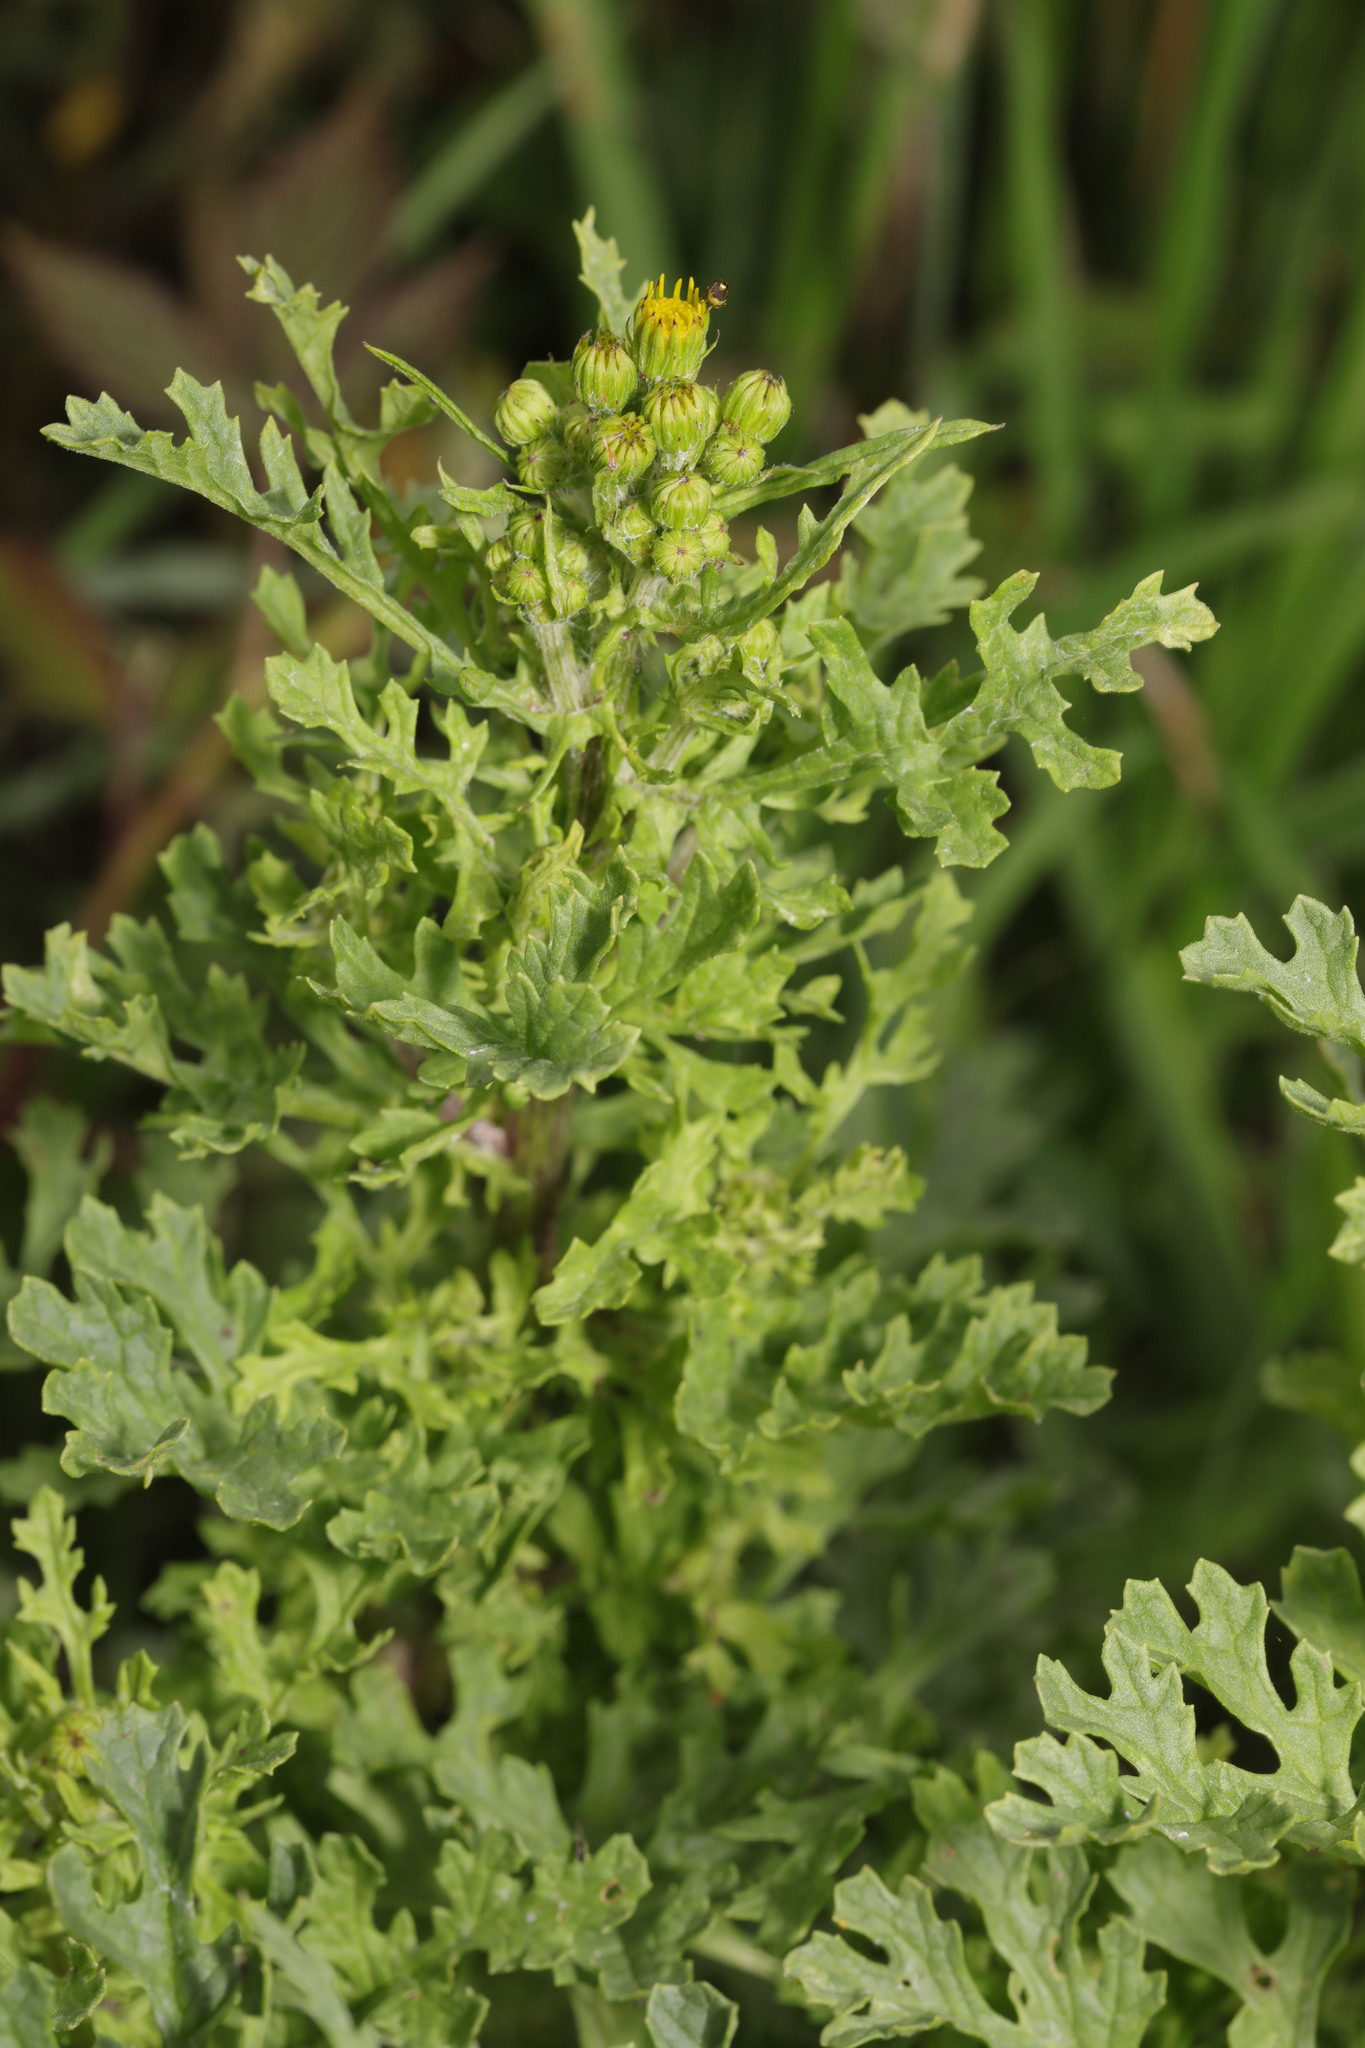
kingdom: Plantae
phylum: Tracheophyta
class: Magnoliopsida
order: Asterales
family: Asteraceae
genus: Jacobaea
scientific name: Jacobaea vulgaris
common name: Stinking willie
